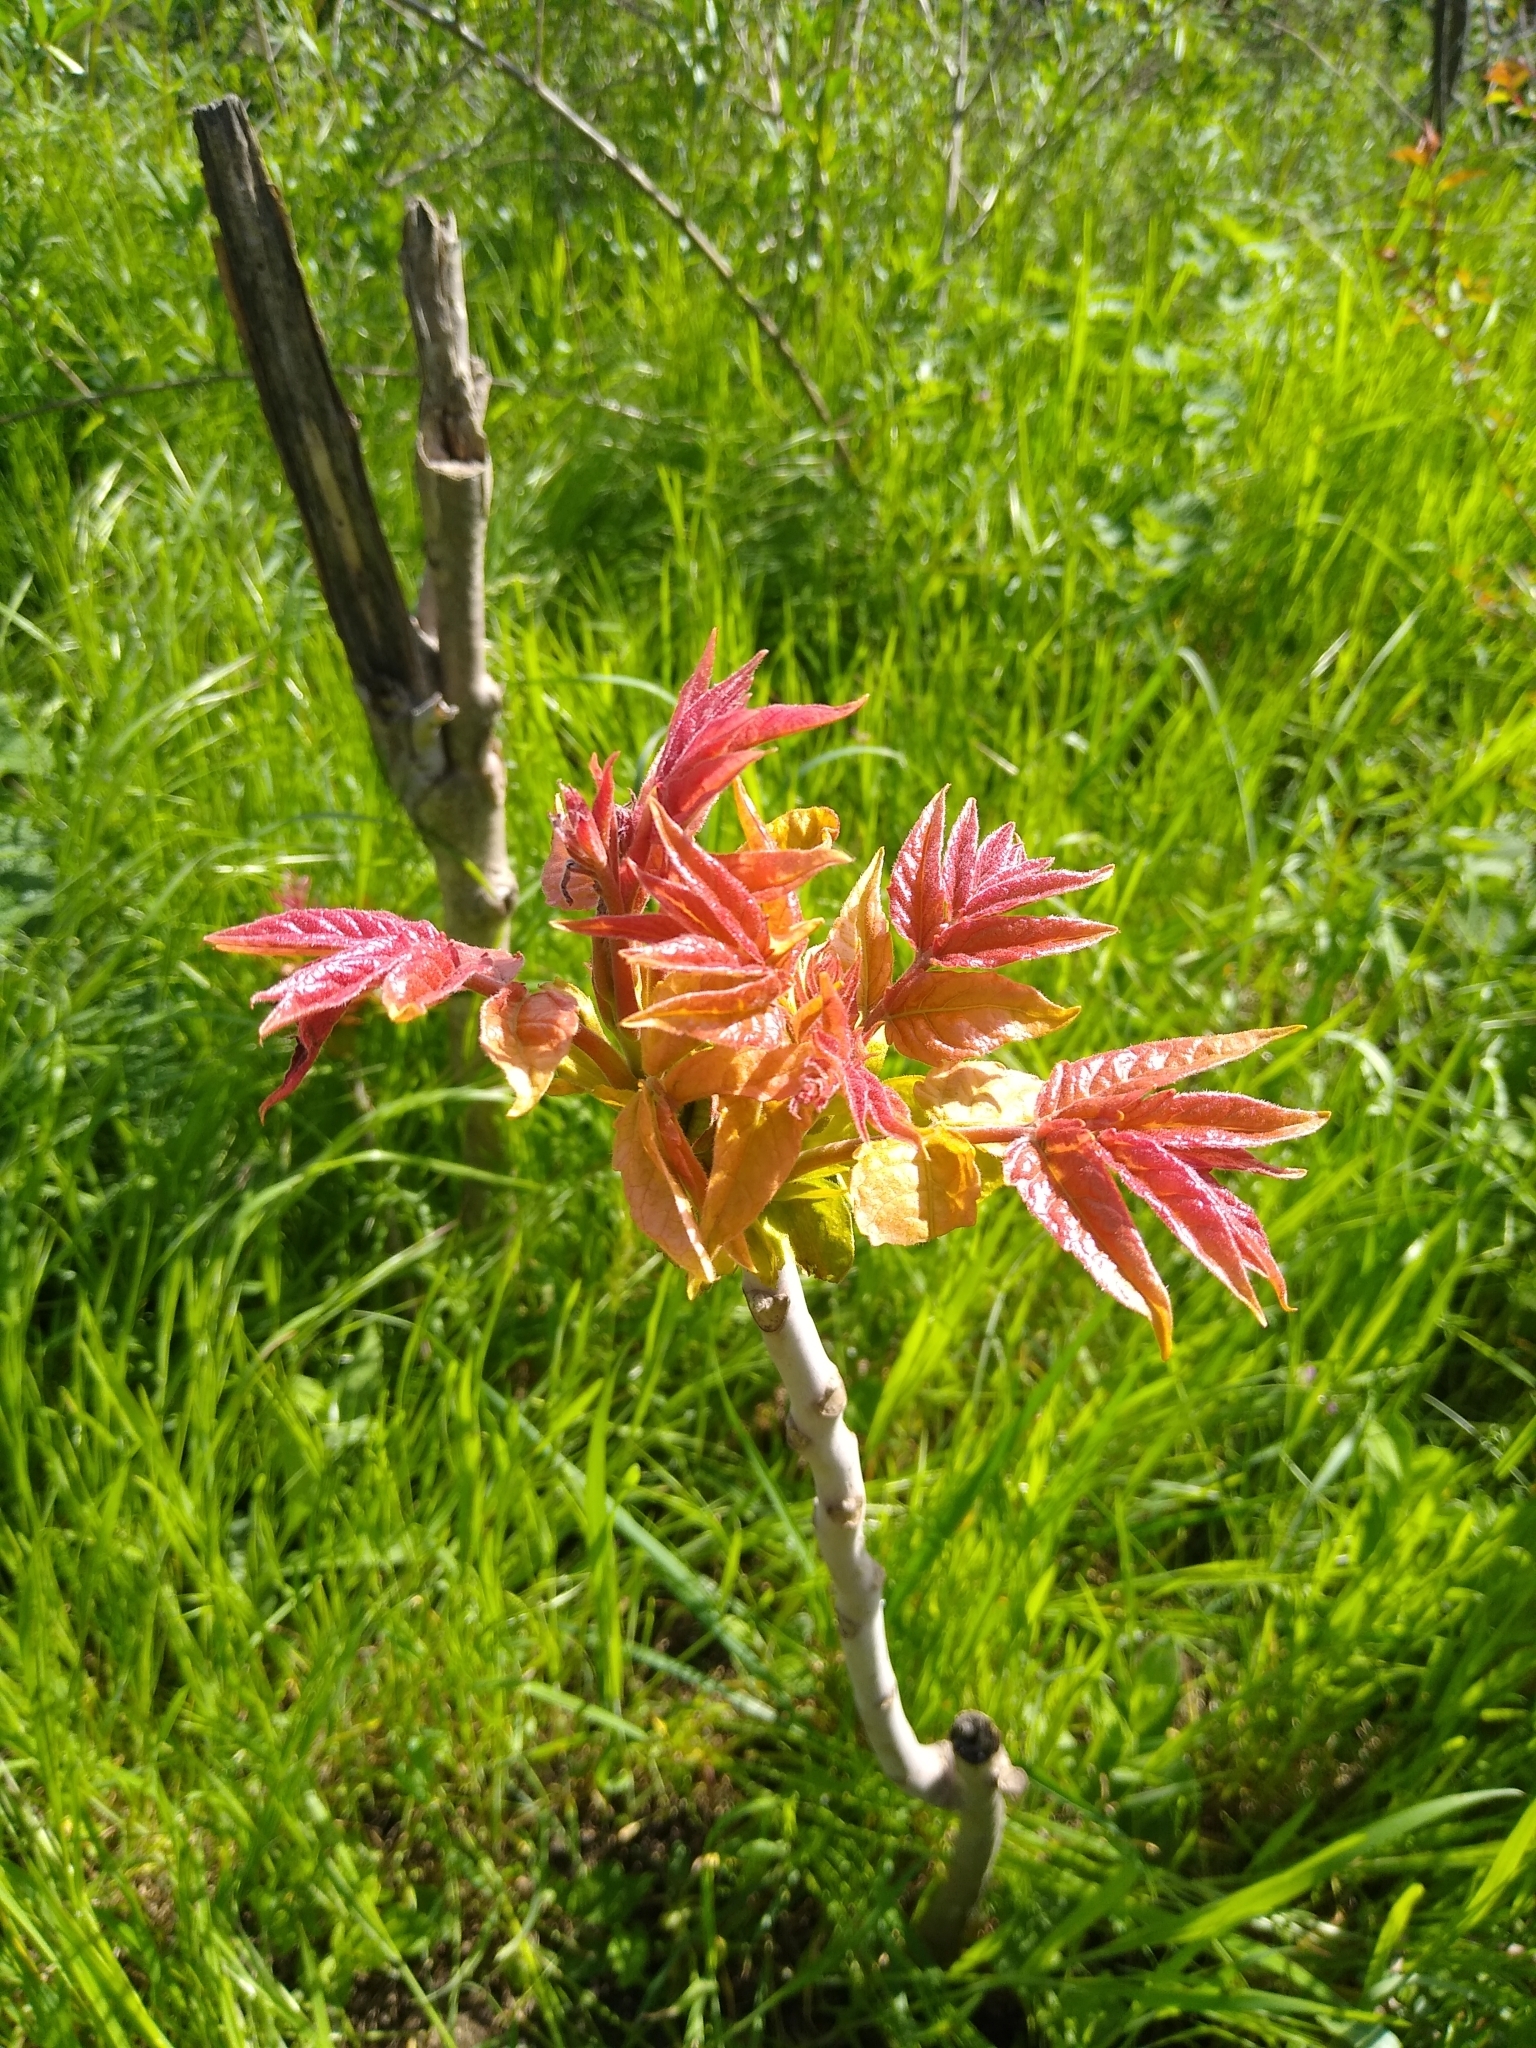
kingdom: Plantae
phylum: Tracheophyta
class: Magnoliopsida
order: Sapindales
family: Simaroubaceae
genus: Ailanthus
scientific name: Ailanthus altissima
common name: Tree-of-heaven
